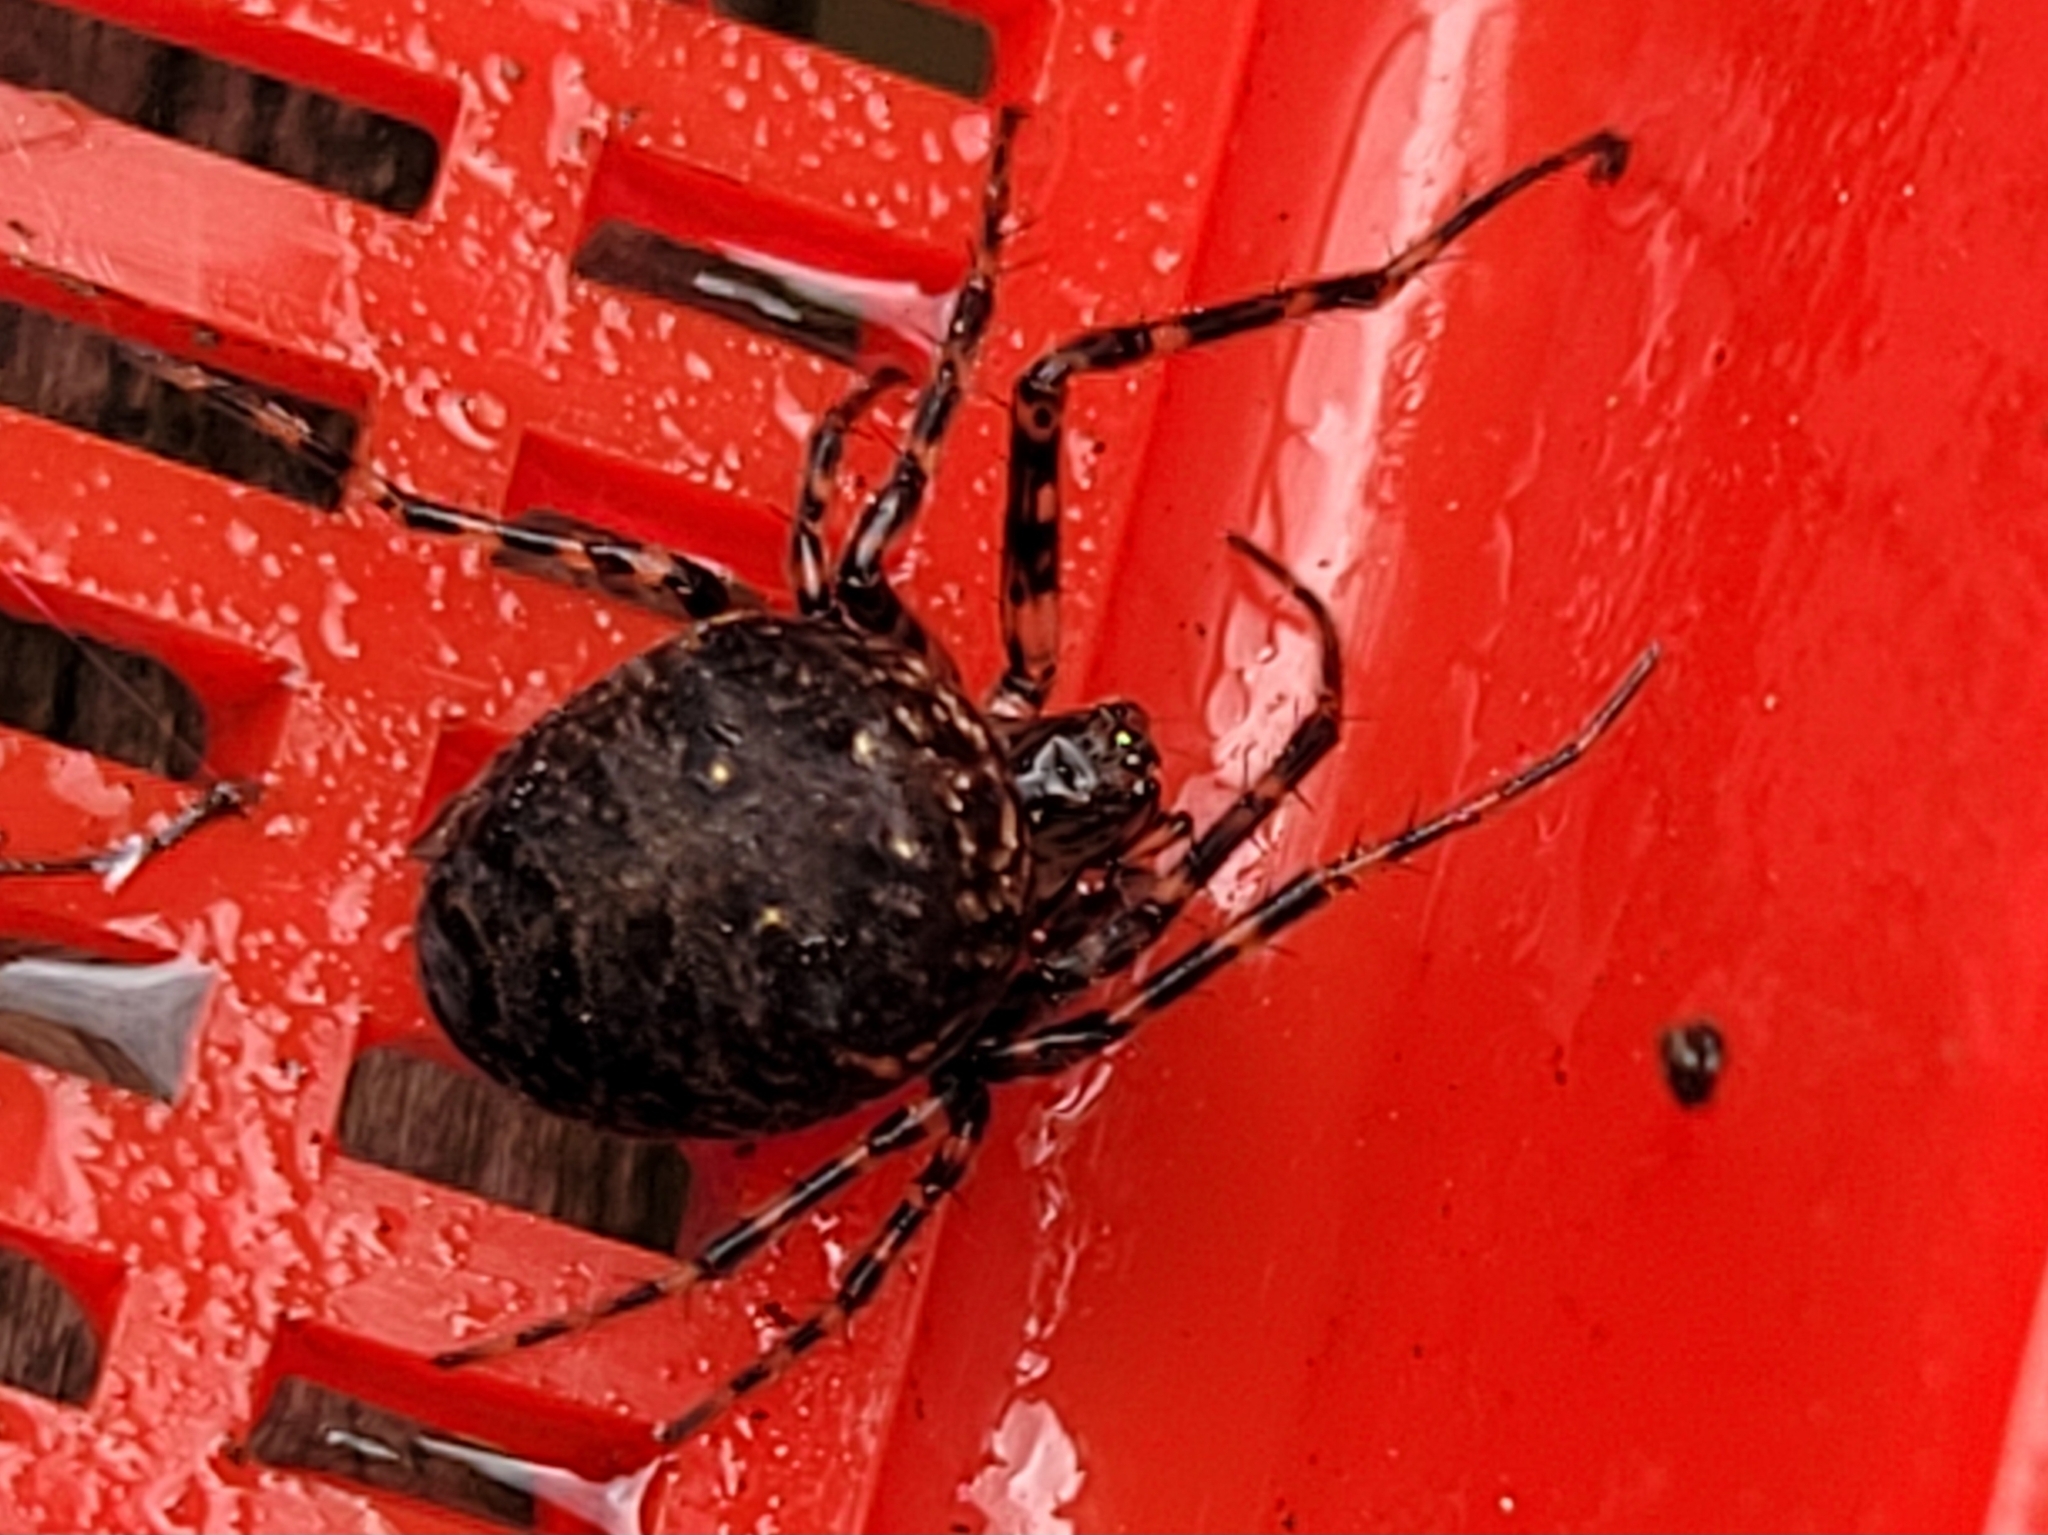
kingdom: Animalia
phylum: Arthropoda
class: Arachnida
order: Araneae
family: Tetragnathidae
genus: Metellina
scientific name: Metellina merianae
